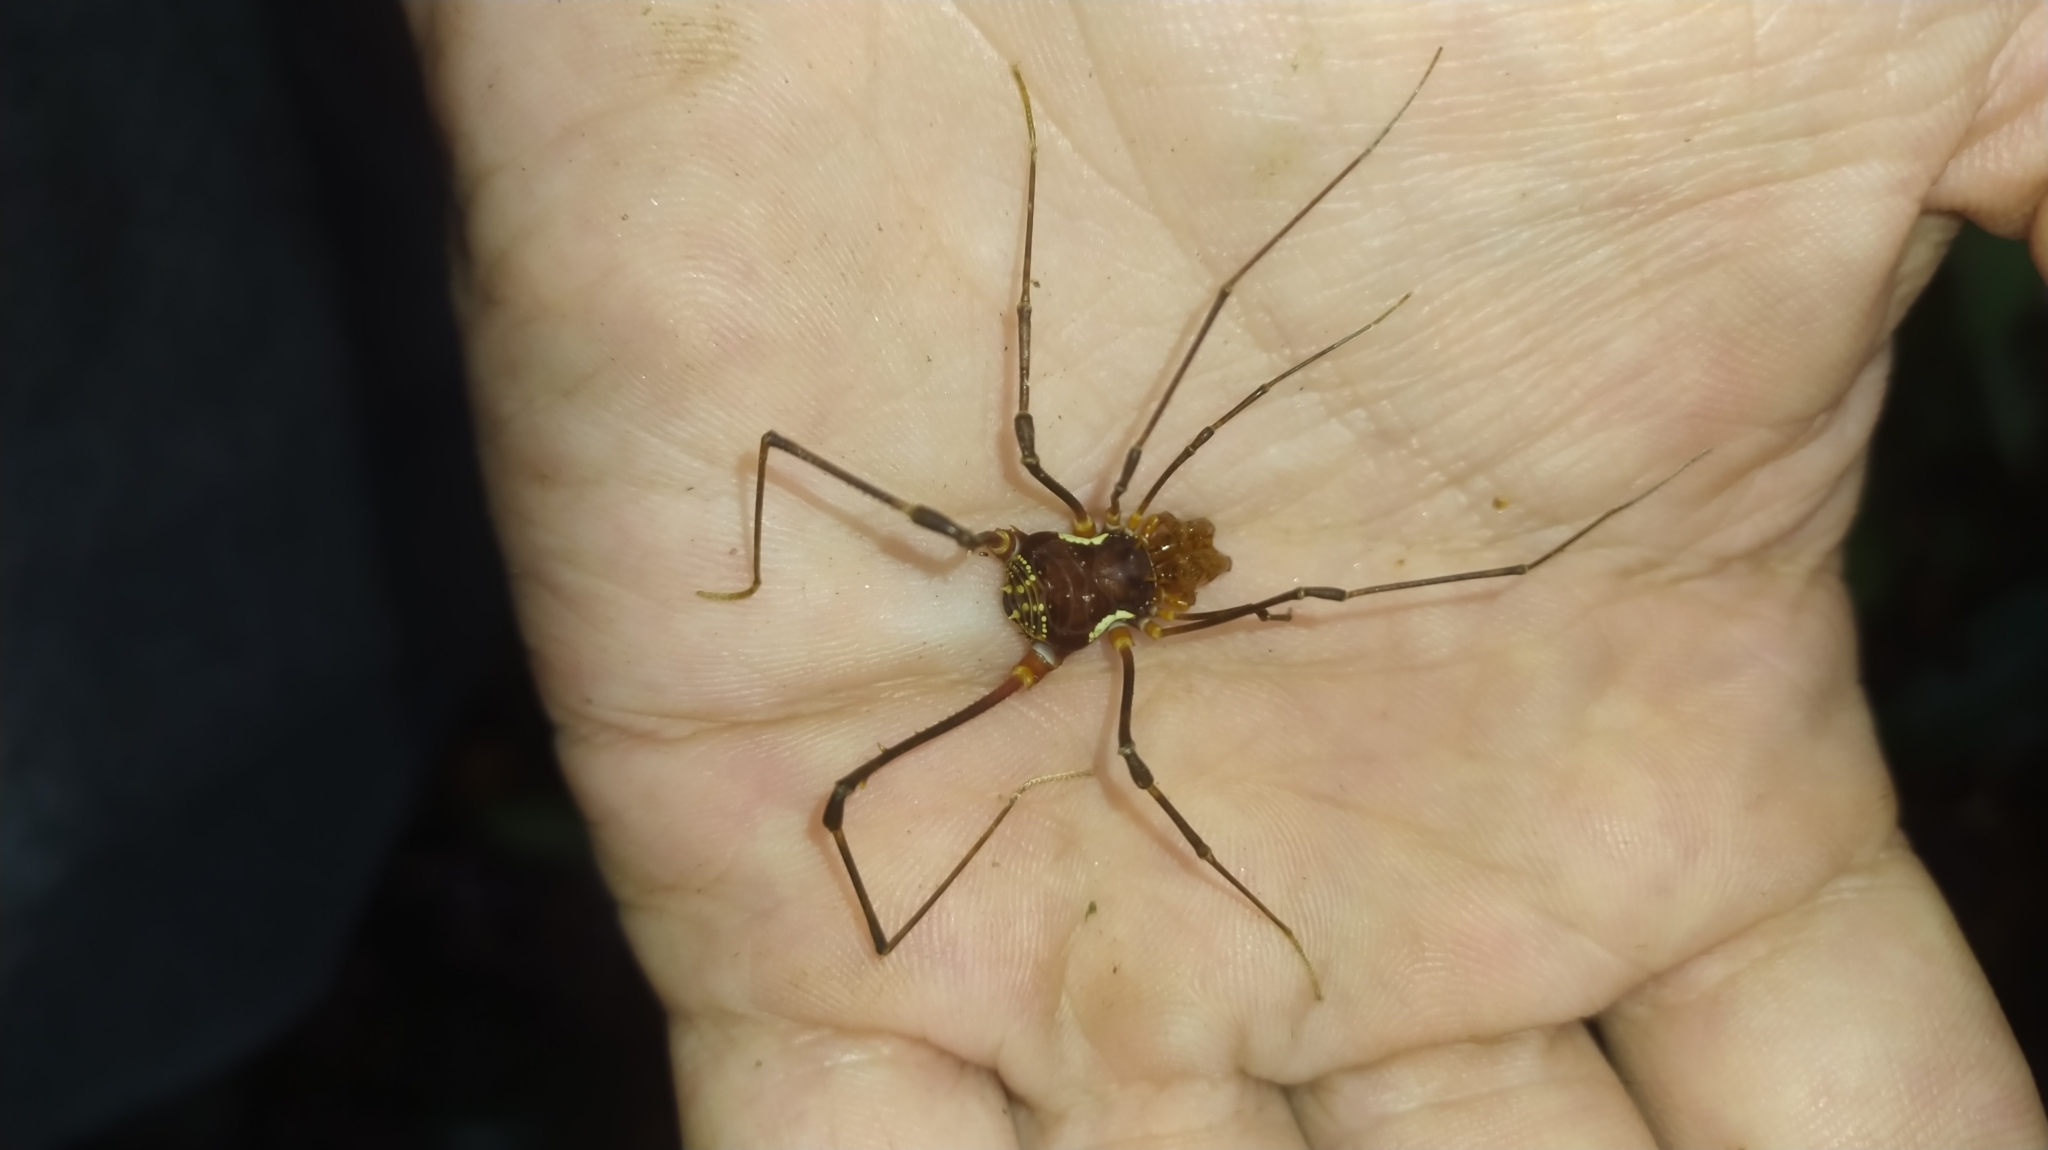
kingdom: Animalia
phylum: Arthropoda
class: Arachnida
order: Opiliones
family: Cranaidae
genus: Phareicranaus
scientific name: Phareicranaus calcariger
